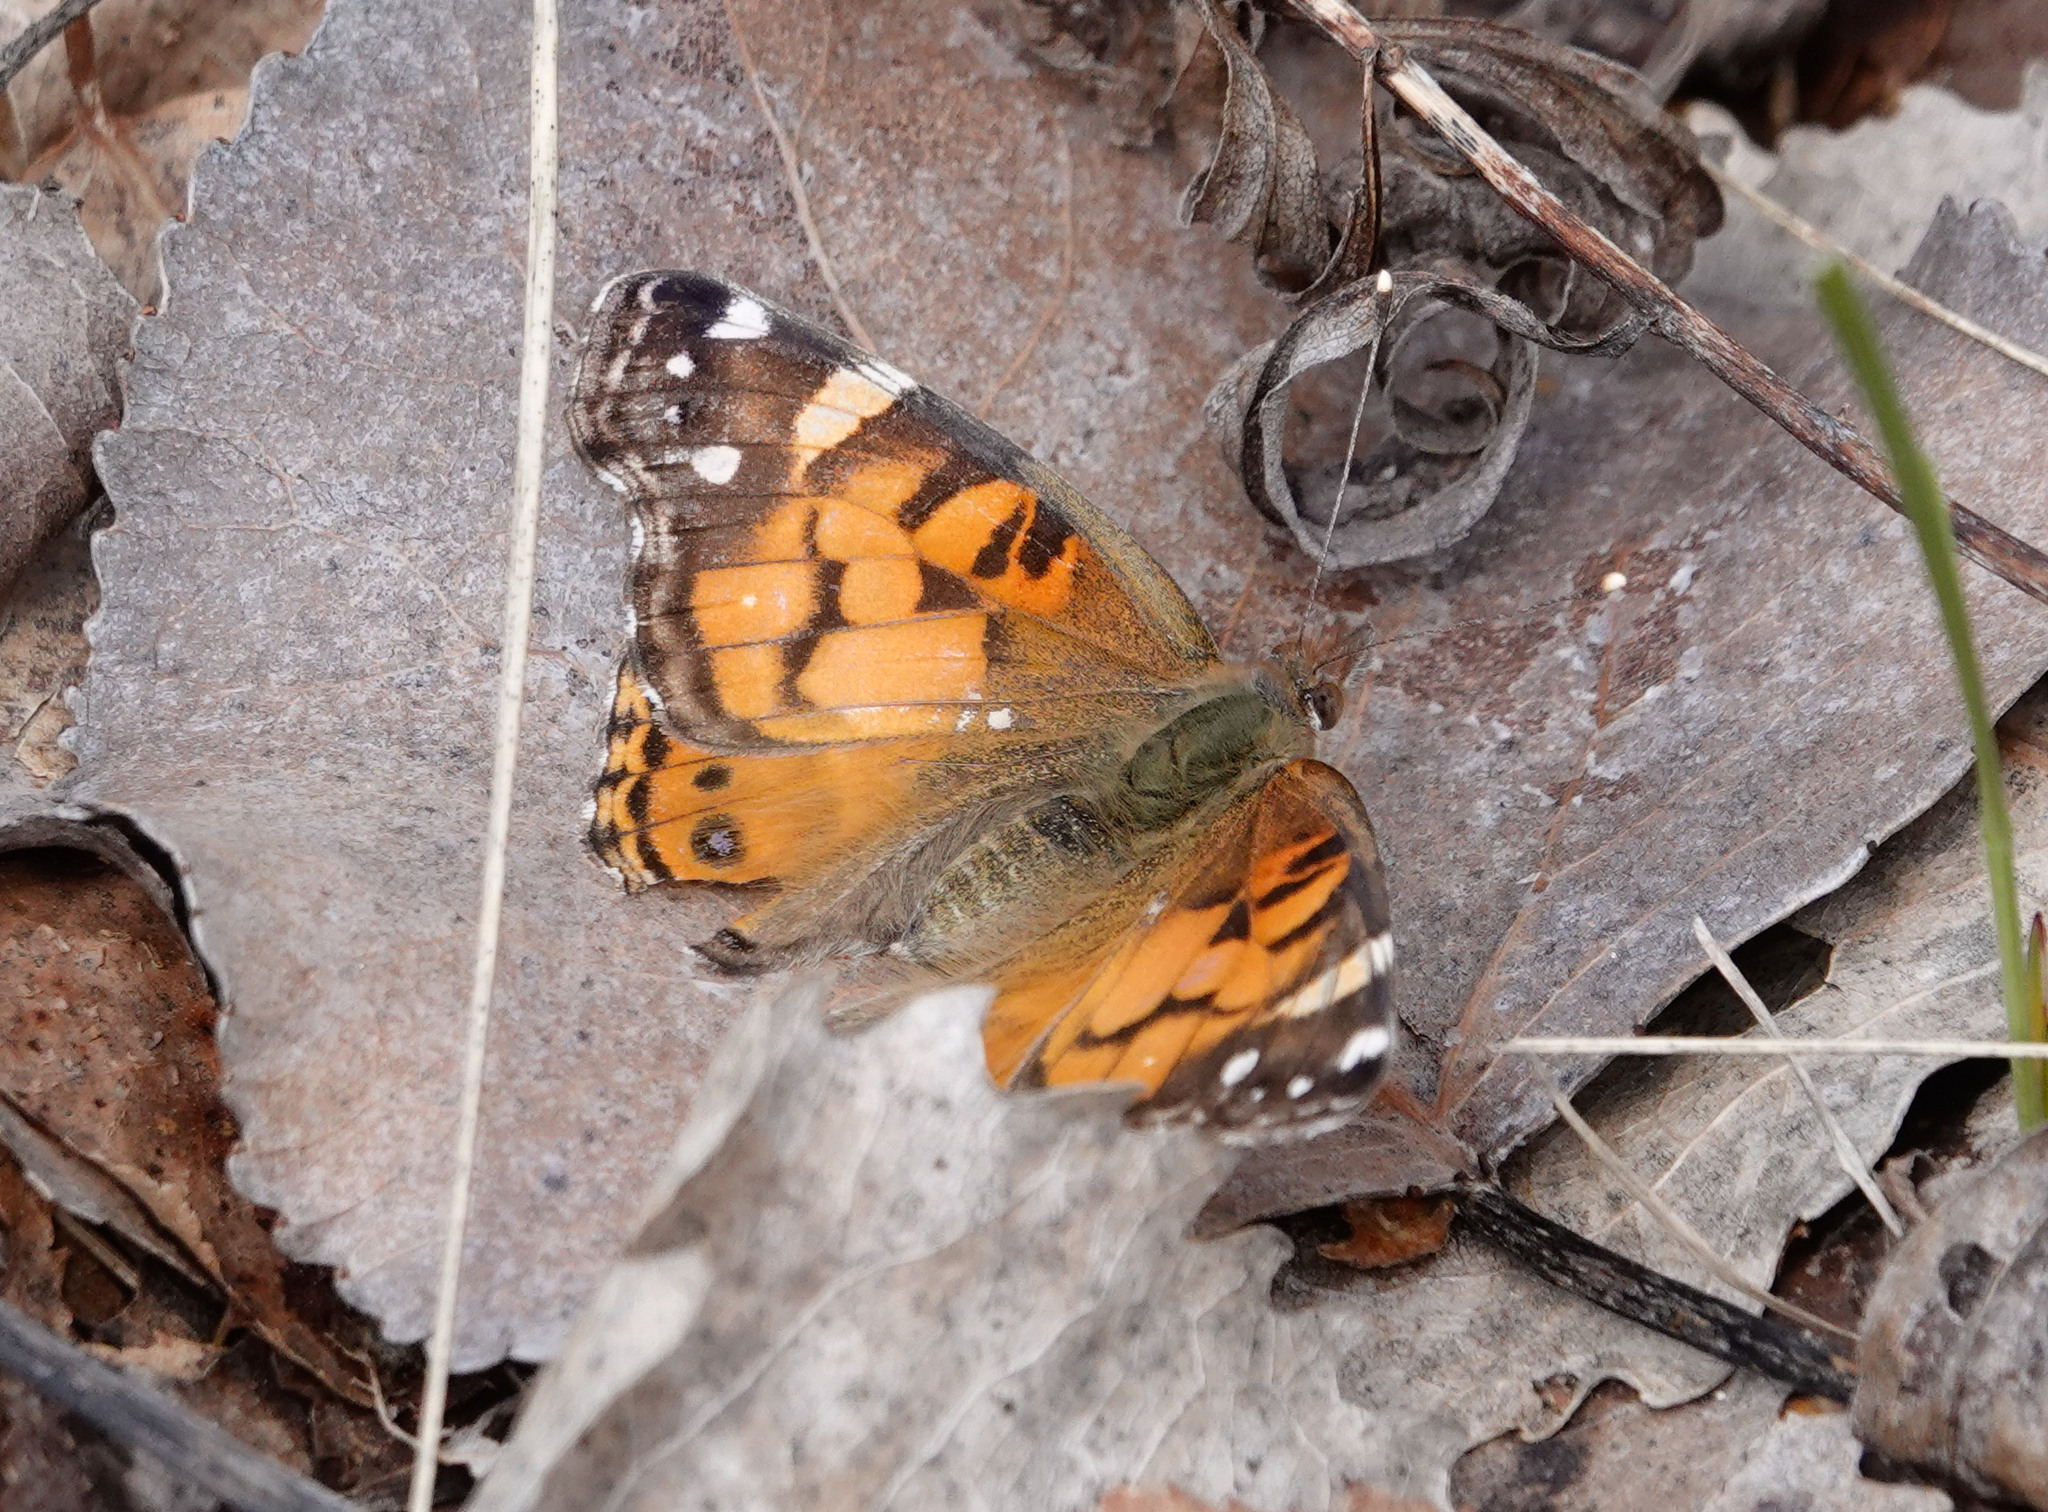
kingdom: Animalia
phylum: Arthropoda
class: Insecta
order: Lepidoptera
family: Nymphalidae
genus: Vanessa
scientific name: Vanessa virginiensis
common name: American lady
